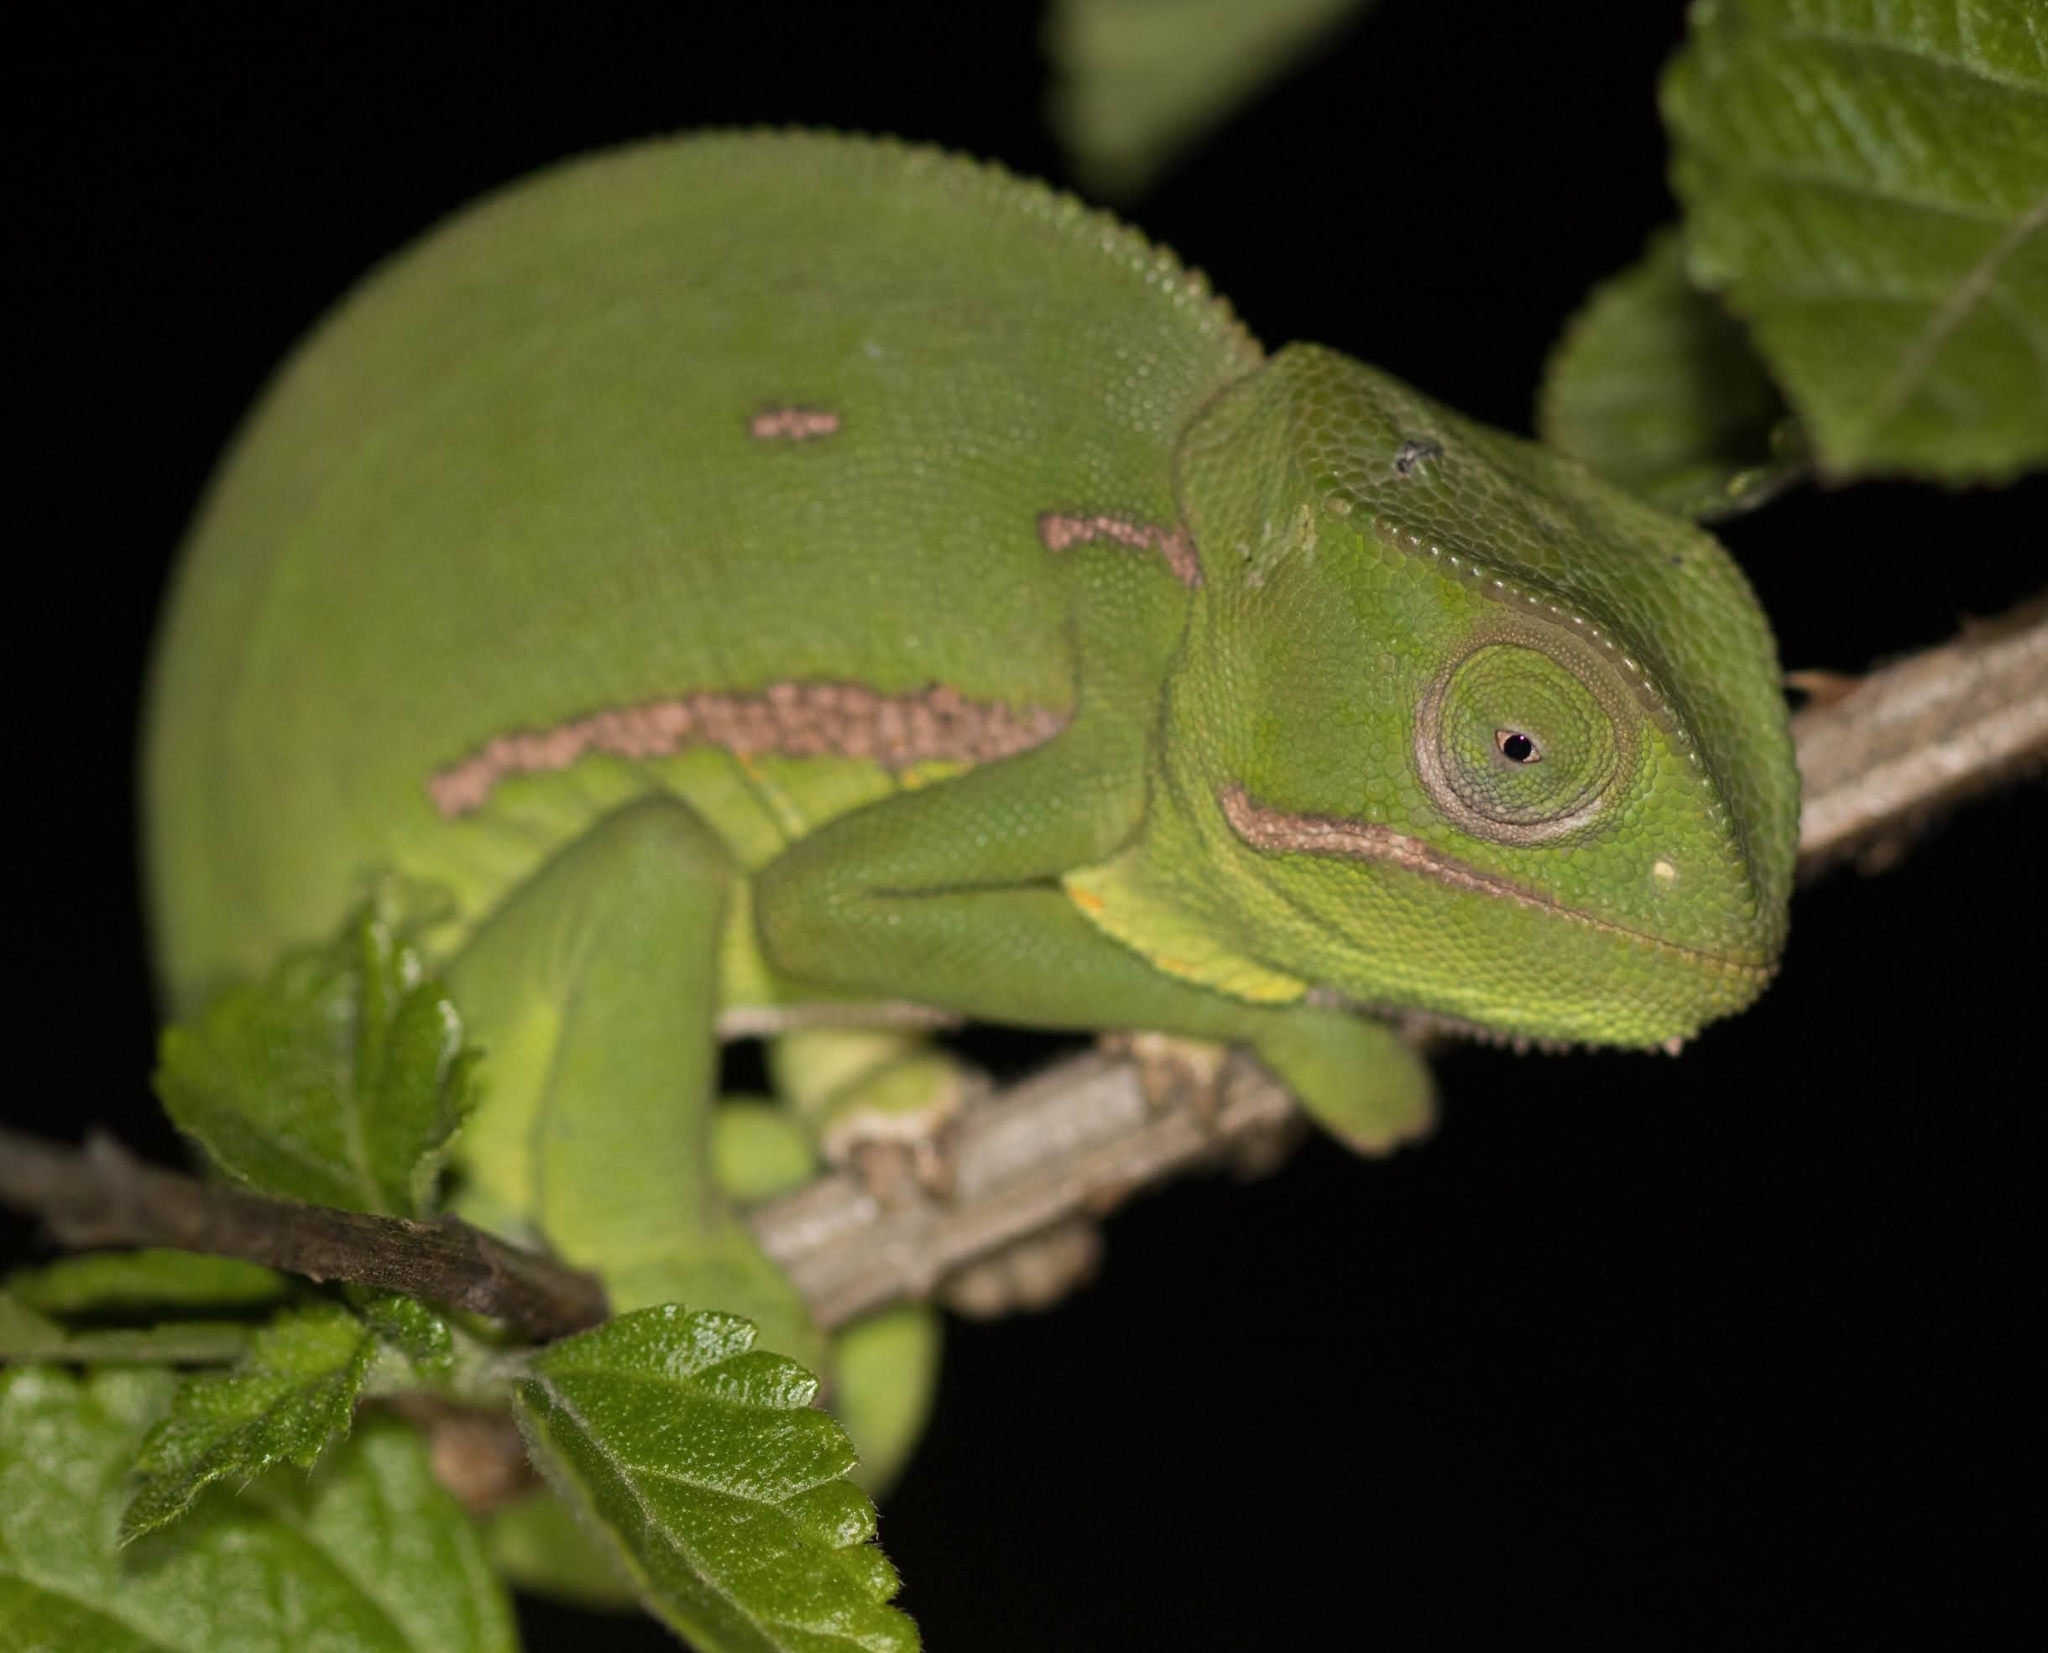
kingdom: Animalia
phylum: Chordata
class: Squamata
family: Chamaeleonidae
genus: Chamaeleo
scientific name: Chamaeleo dilepis
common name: Flapneck chameleon
